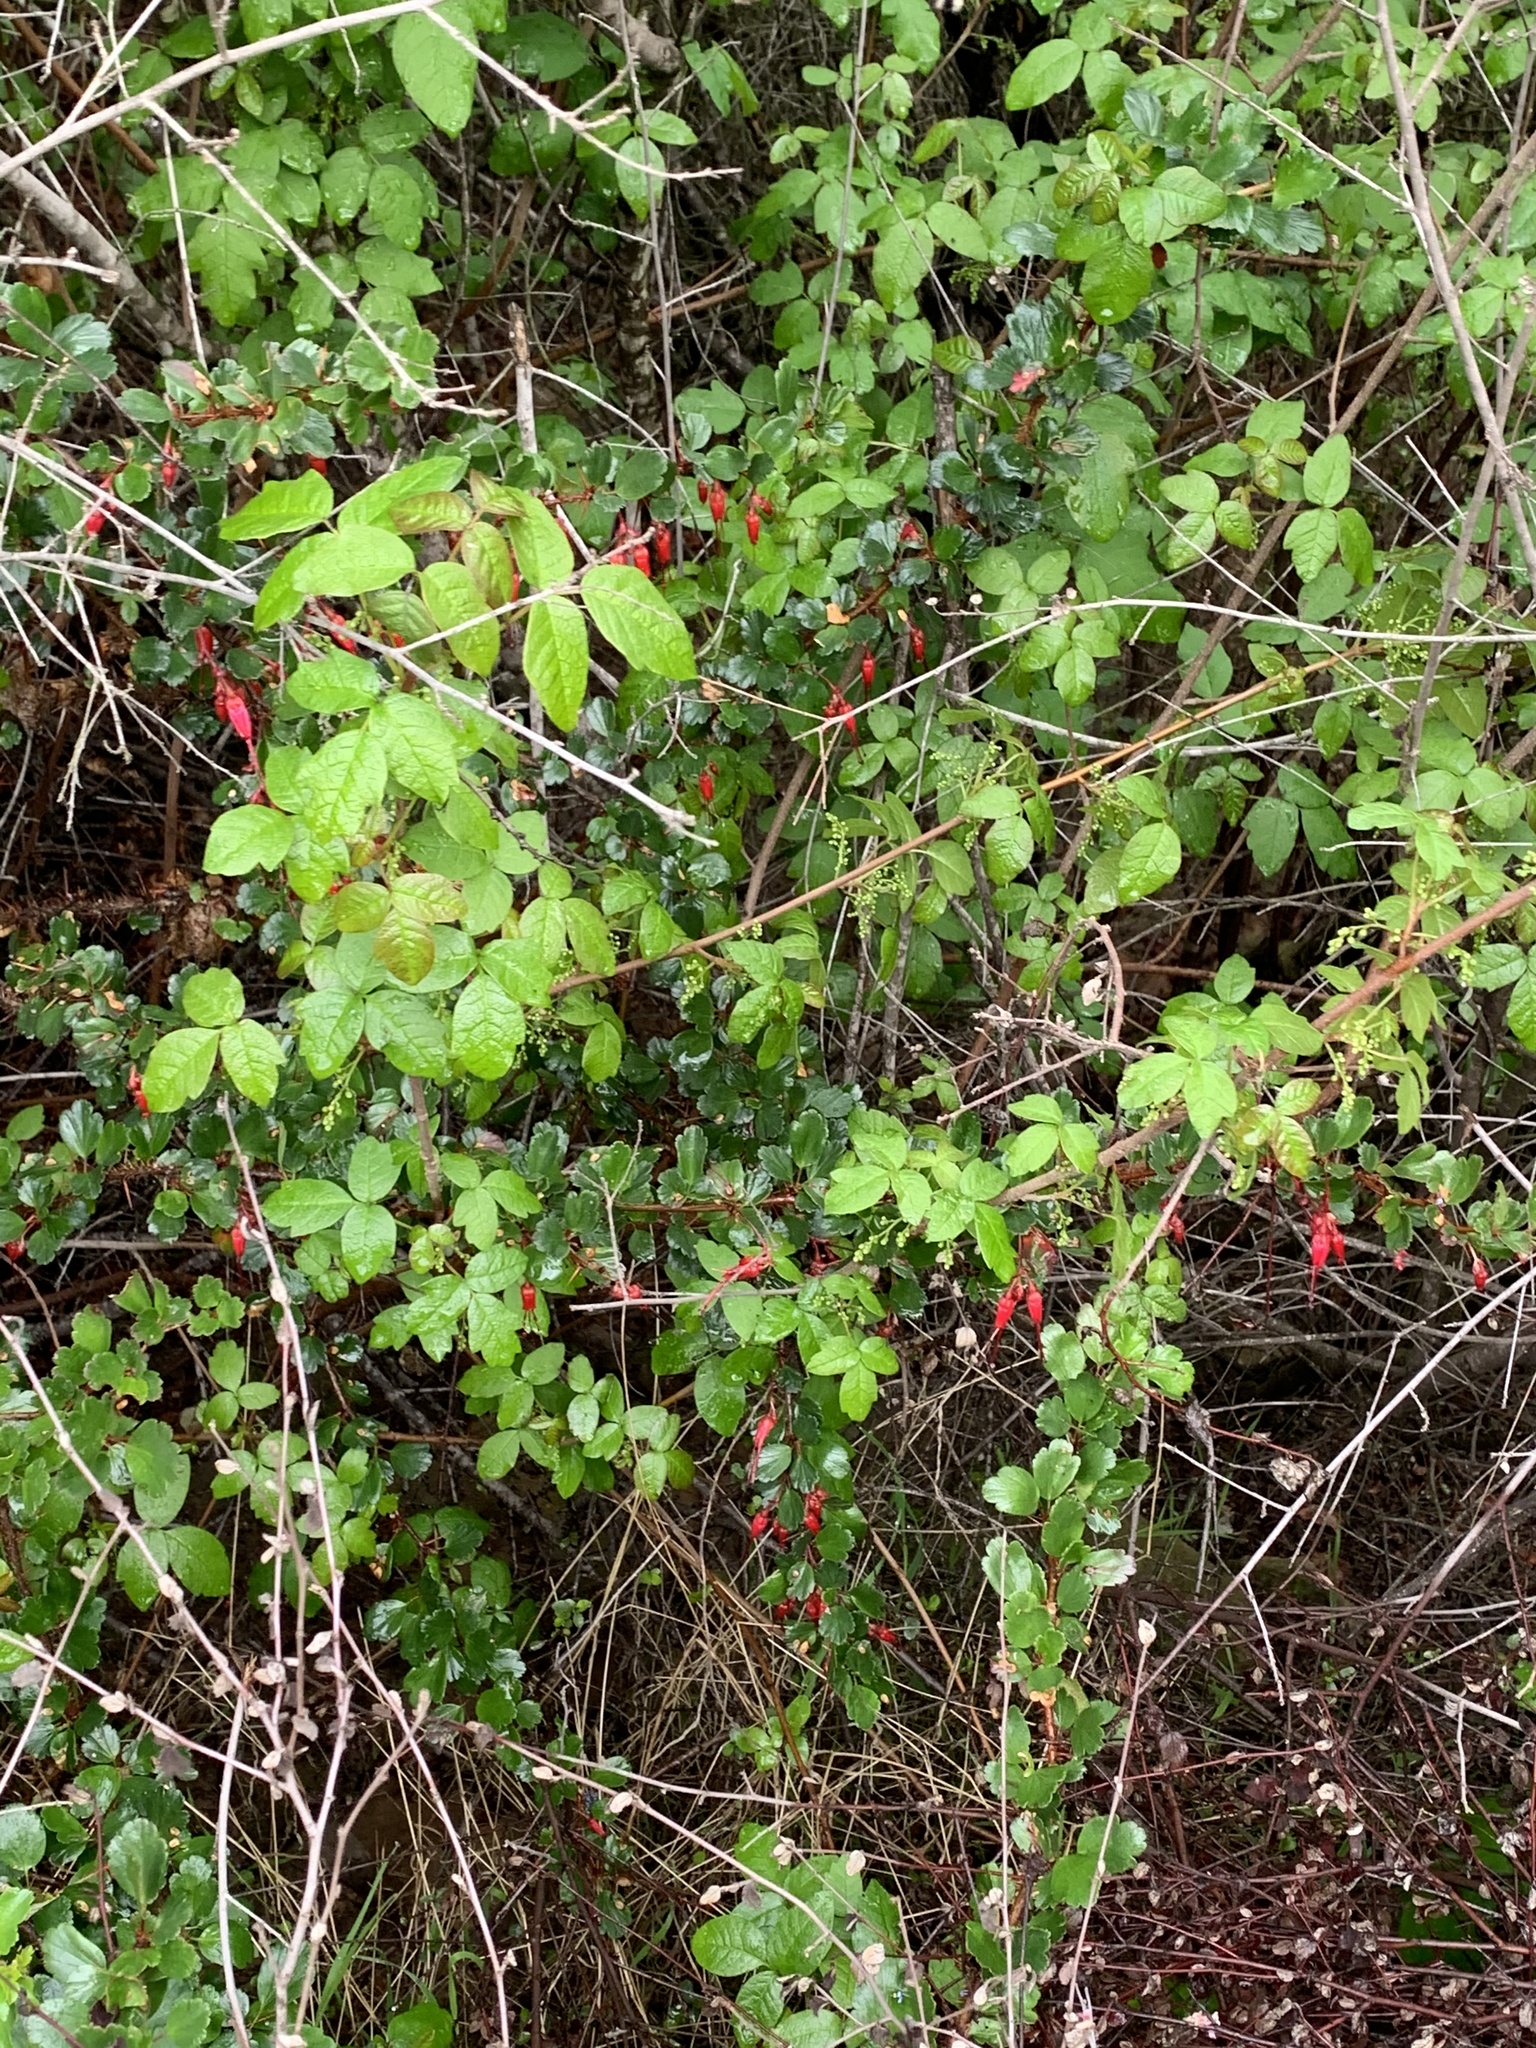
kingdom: Plantae
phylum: Tracheophyta
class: Magnoliopsida
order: Saxifragales
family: Grossulariaceae
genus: Ribes
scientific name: Ribes speciosum
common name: Fuchsia-flower gooseberry
